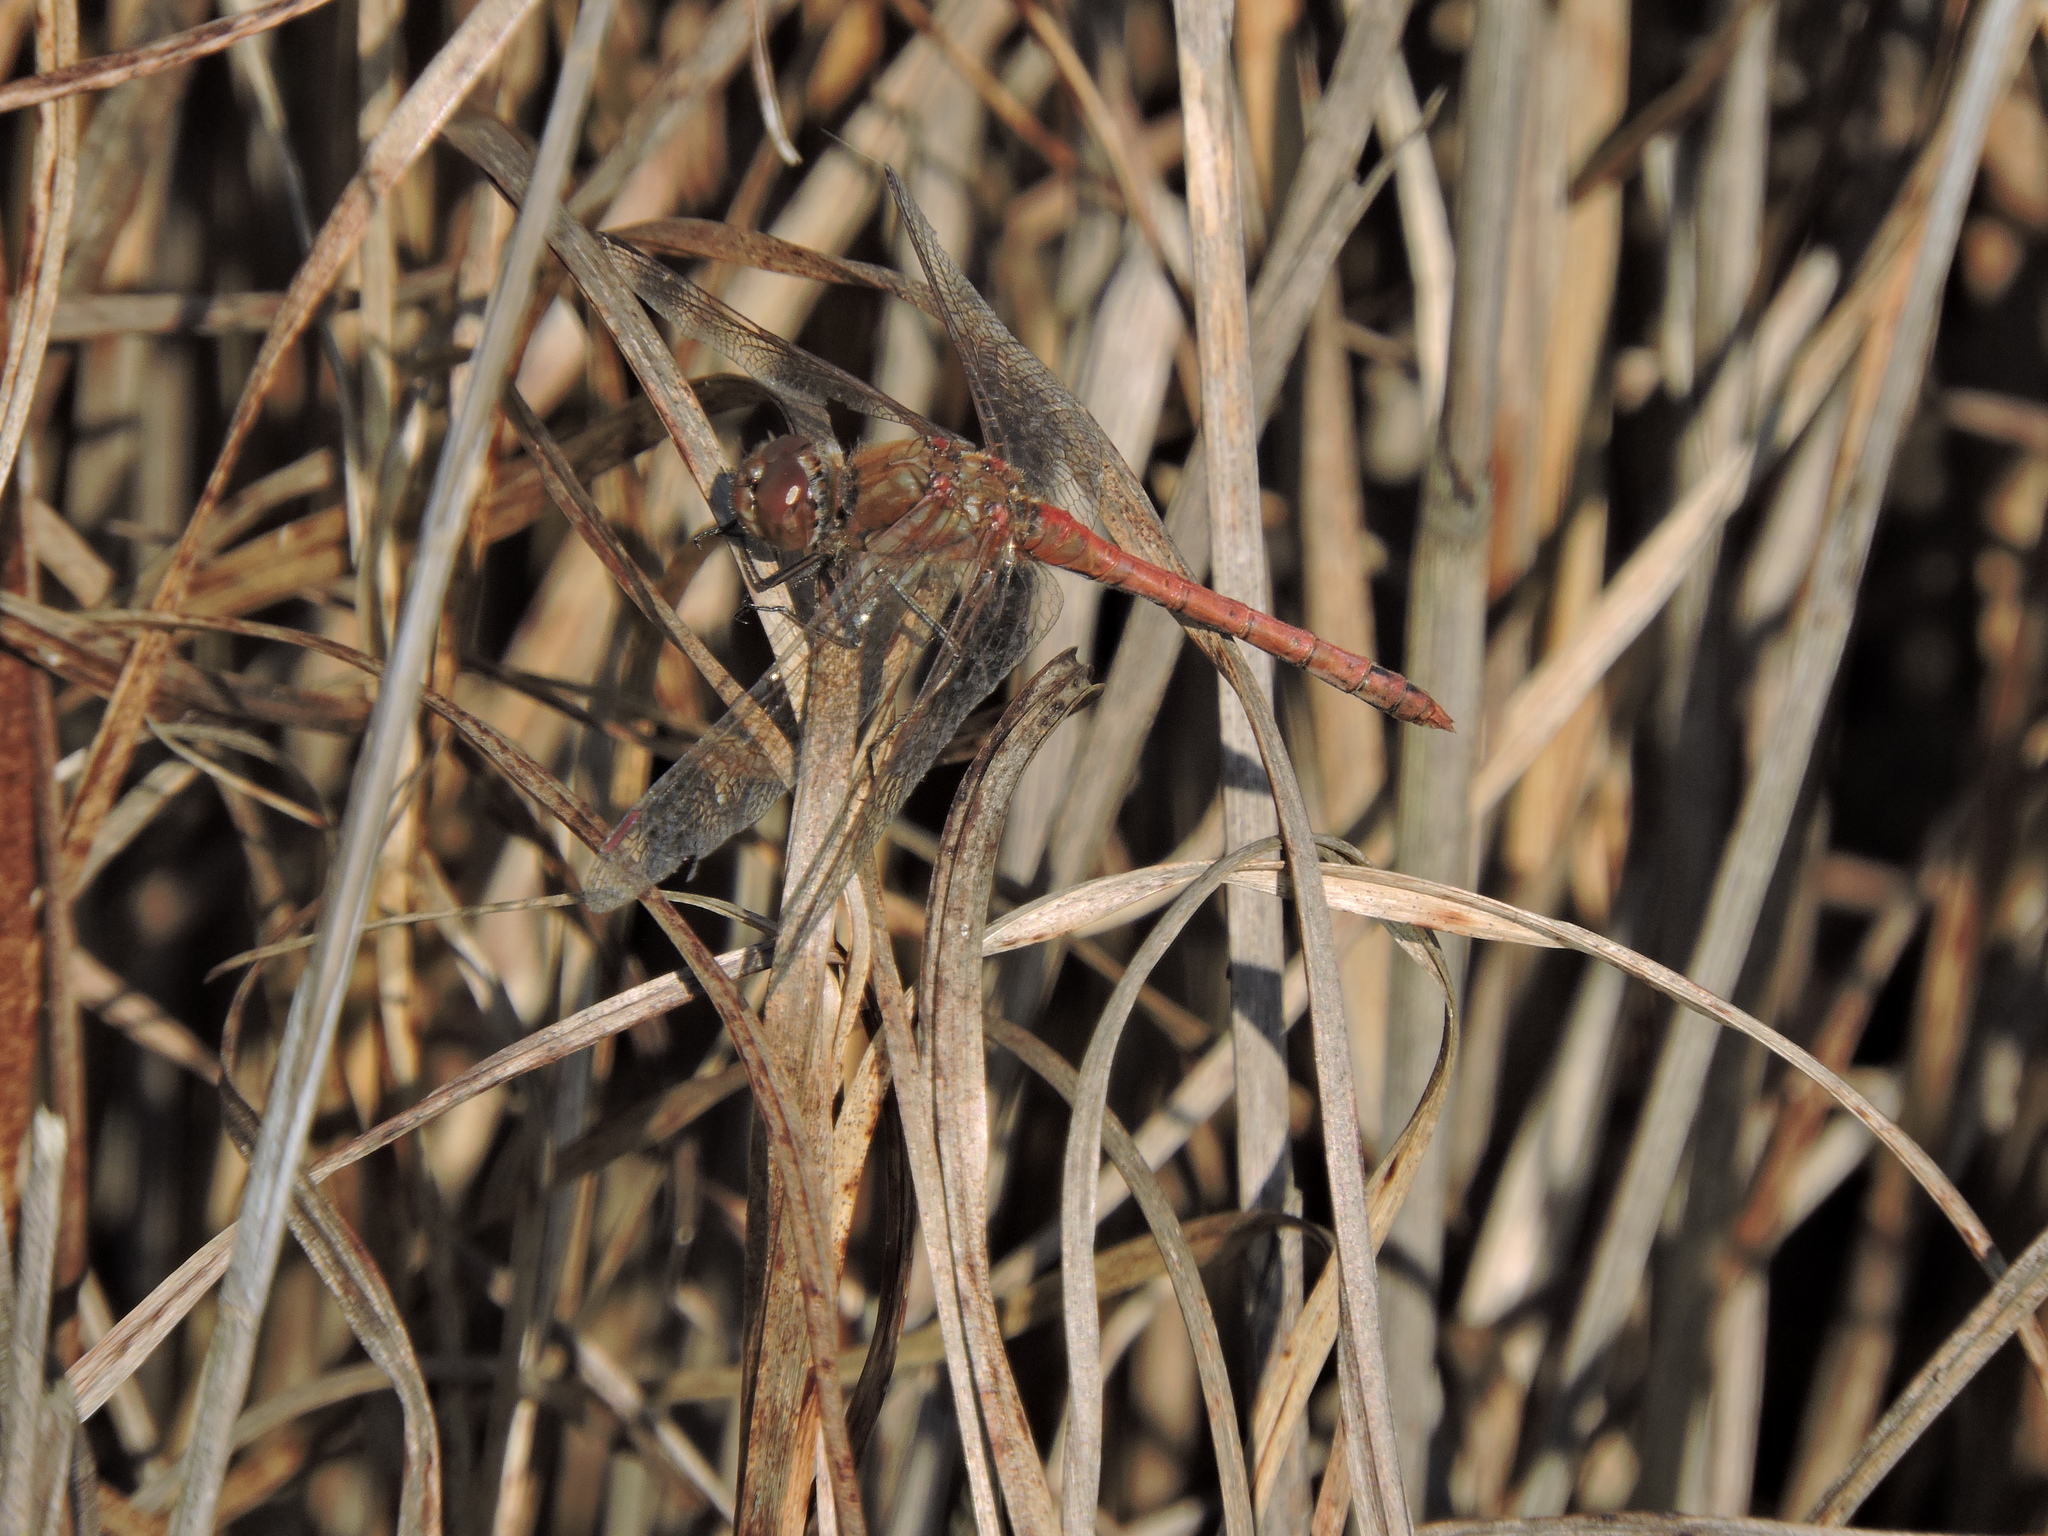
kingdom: Animalia
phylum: Arthropoda
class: Insecta
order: Odonata
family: Libellulidae
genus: Sympetrum
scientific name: Sympetrum striolatum
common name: Common darter
